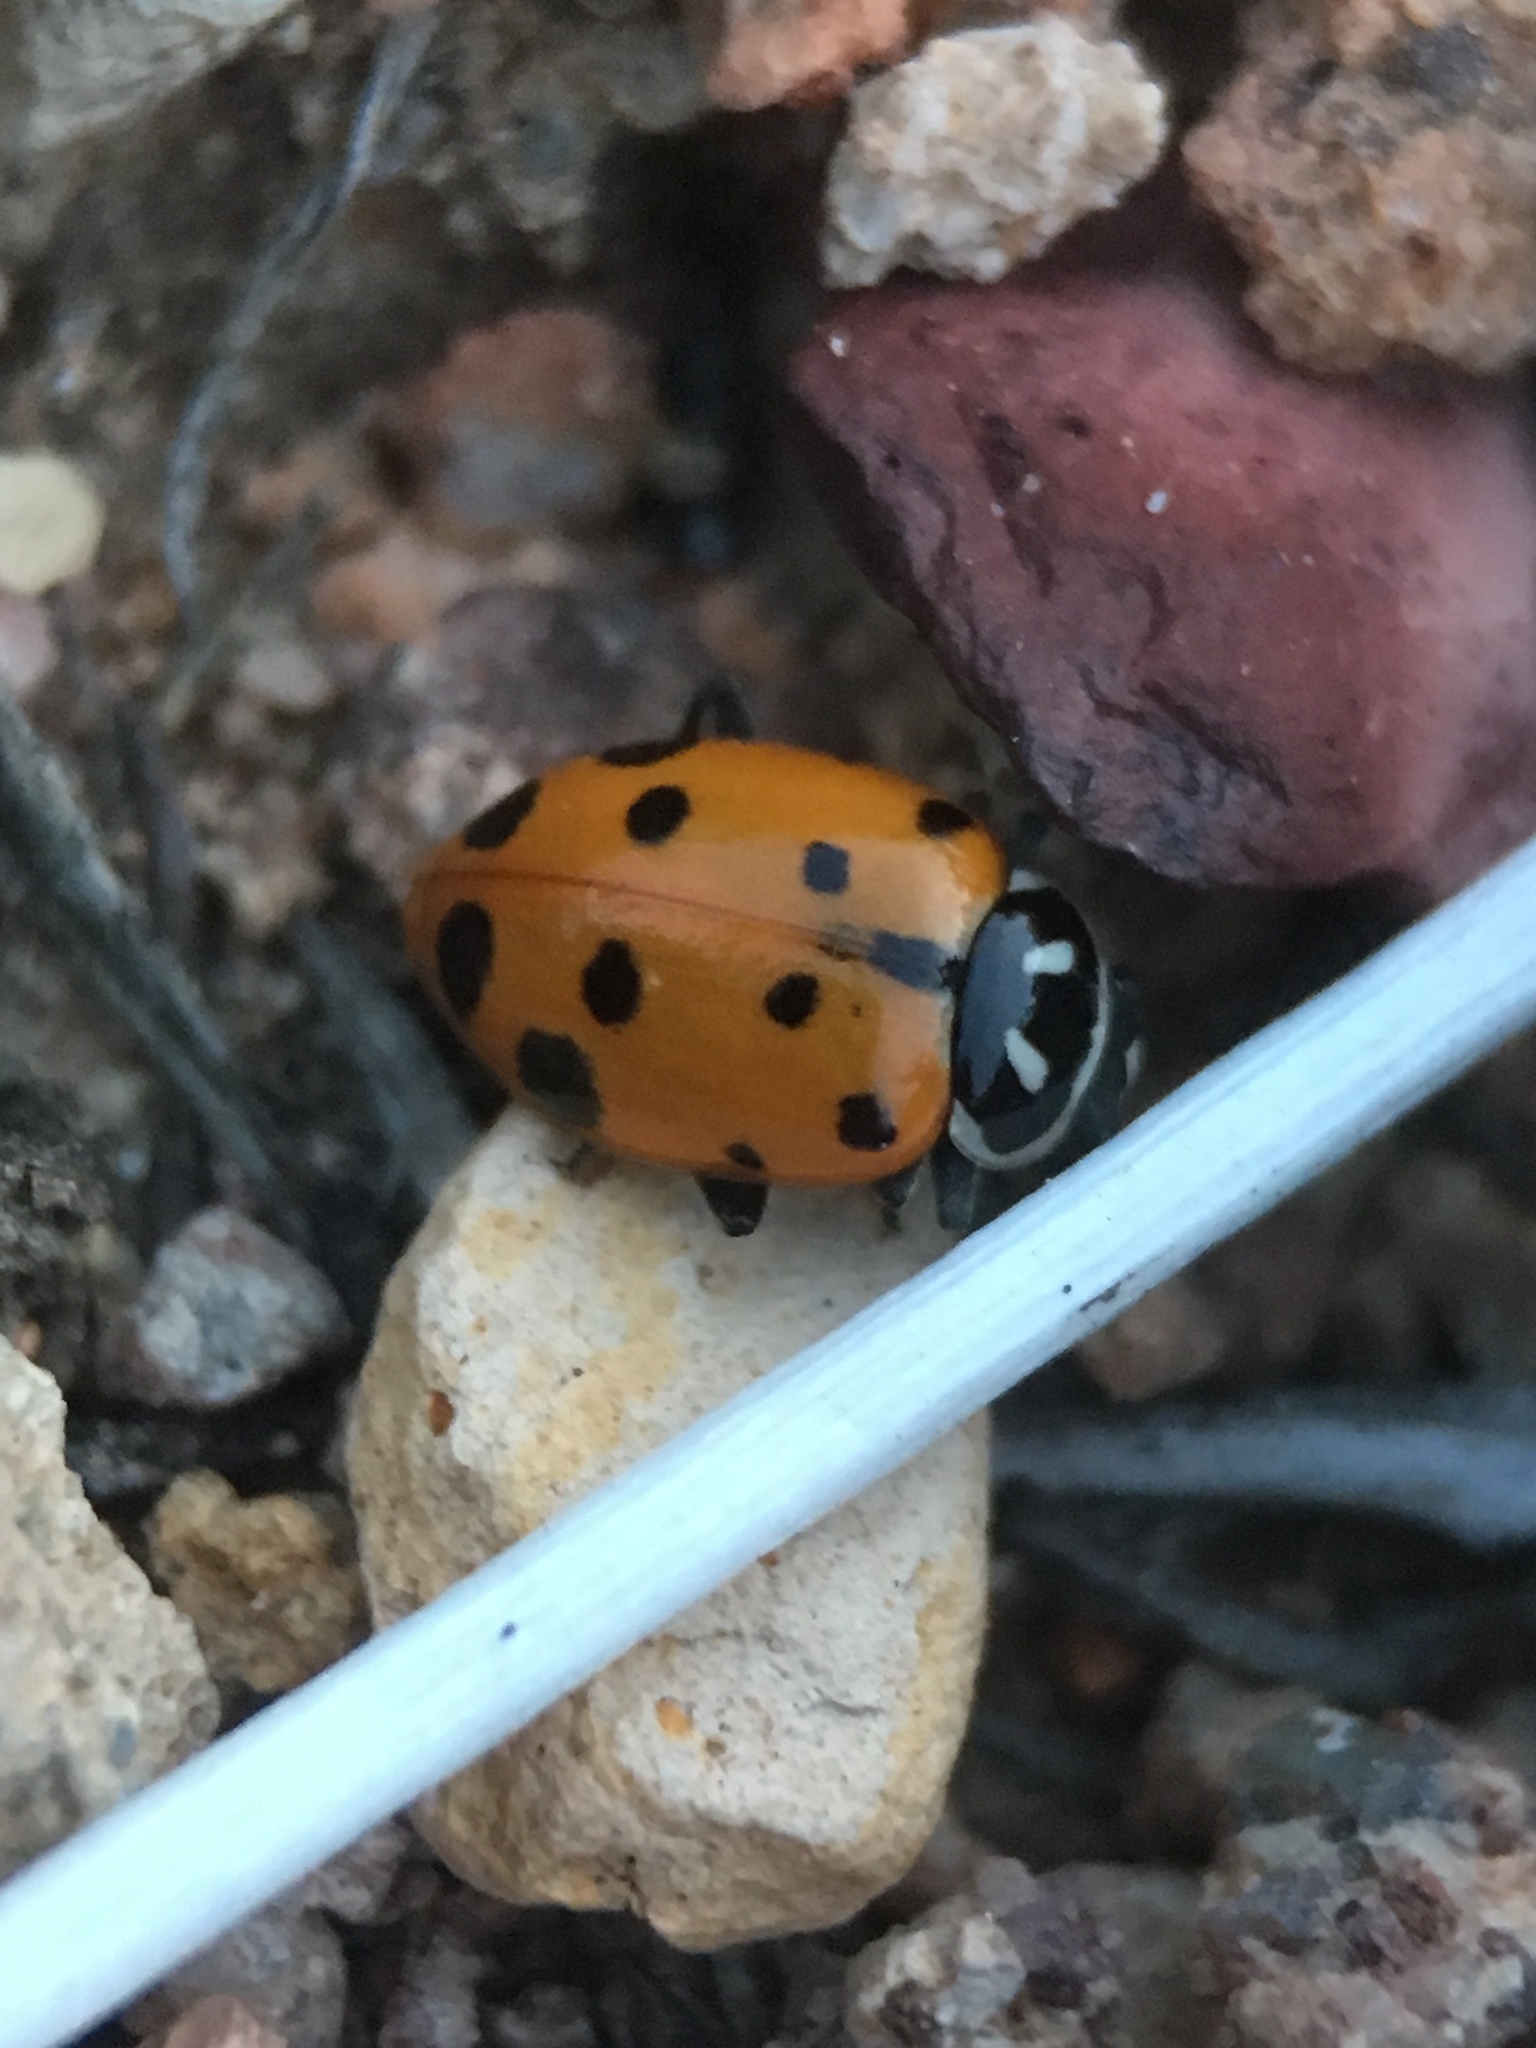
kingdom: Animalia
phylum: Arthropoda
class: Insecta
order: Coleoptera
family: Coccinellidae
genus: Hippodamia
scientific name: Hippodamia convergens
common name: Convergent lady beetle
